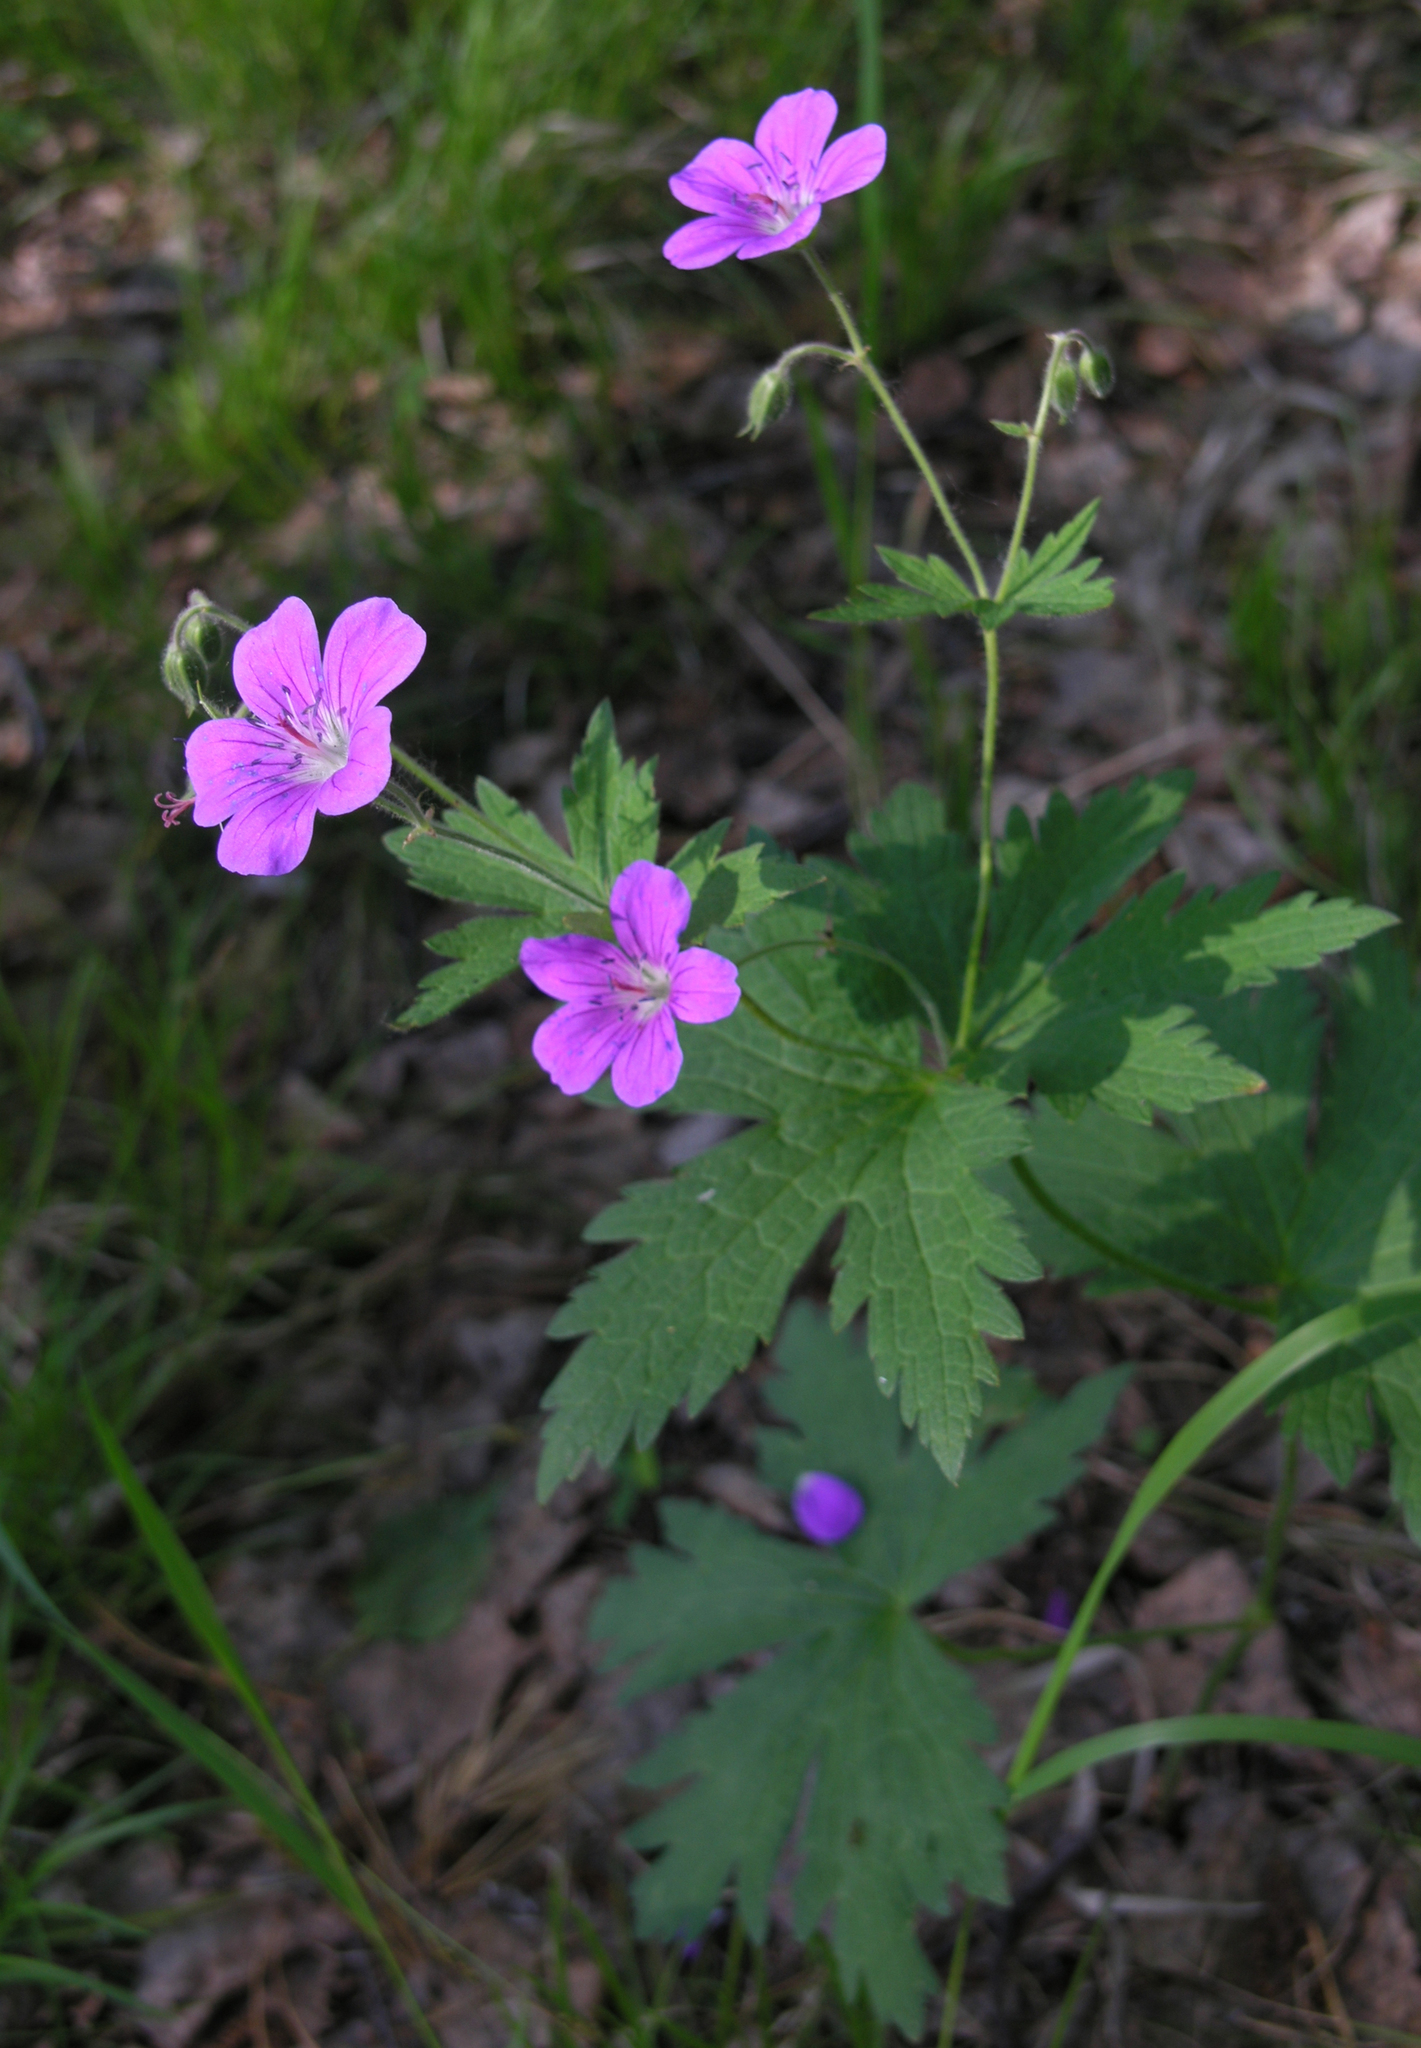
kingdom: Plantae
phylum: Tracheophyta
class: Magnoliopsida
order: Geraniales
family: Geraniaceae
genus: Geranium
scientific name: Geranium sylvaticum
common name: Wood crane's-bill
